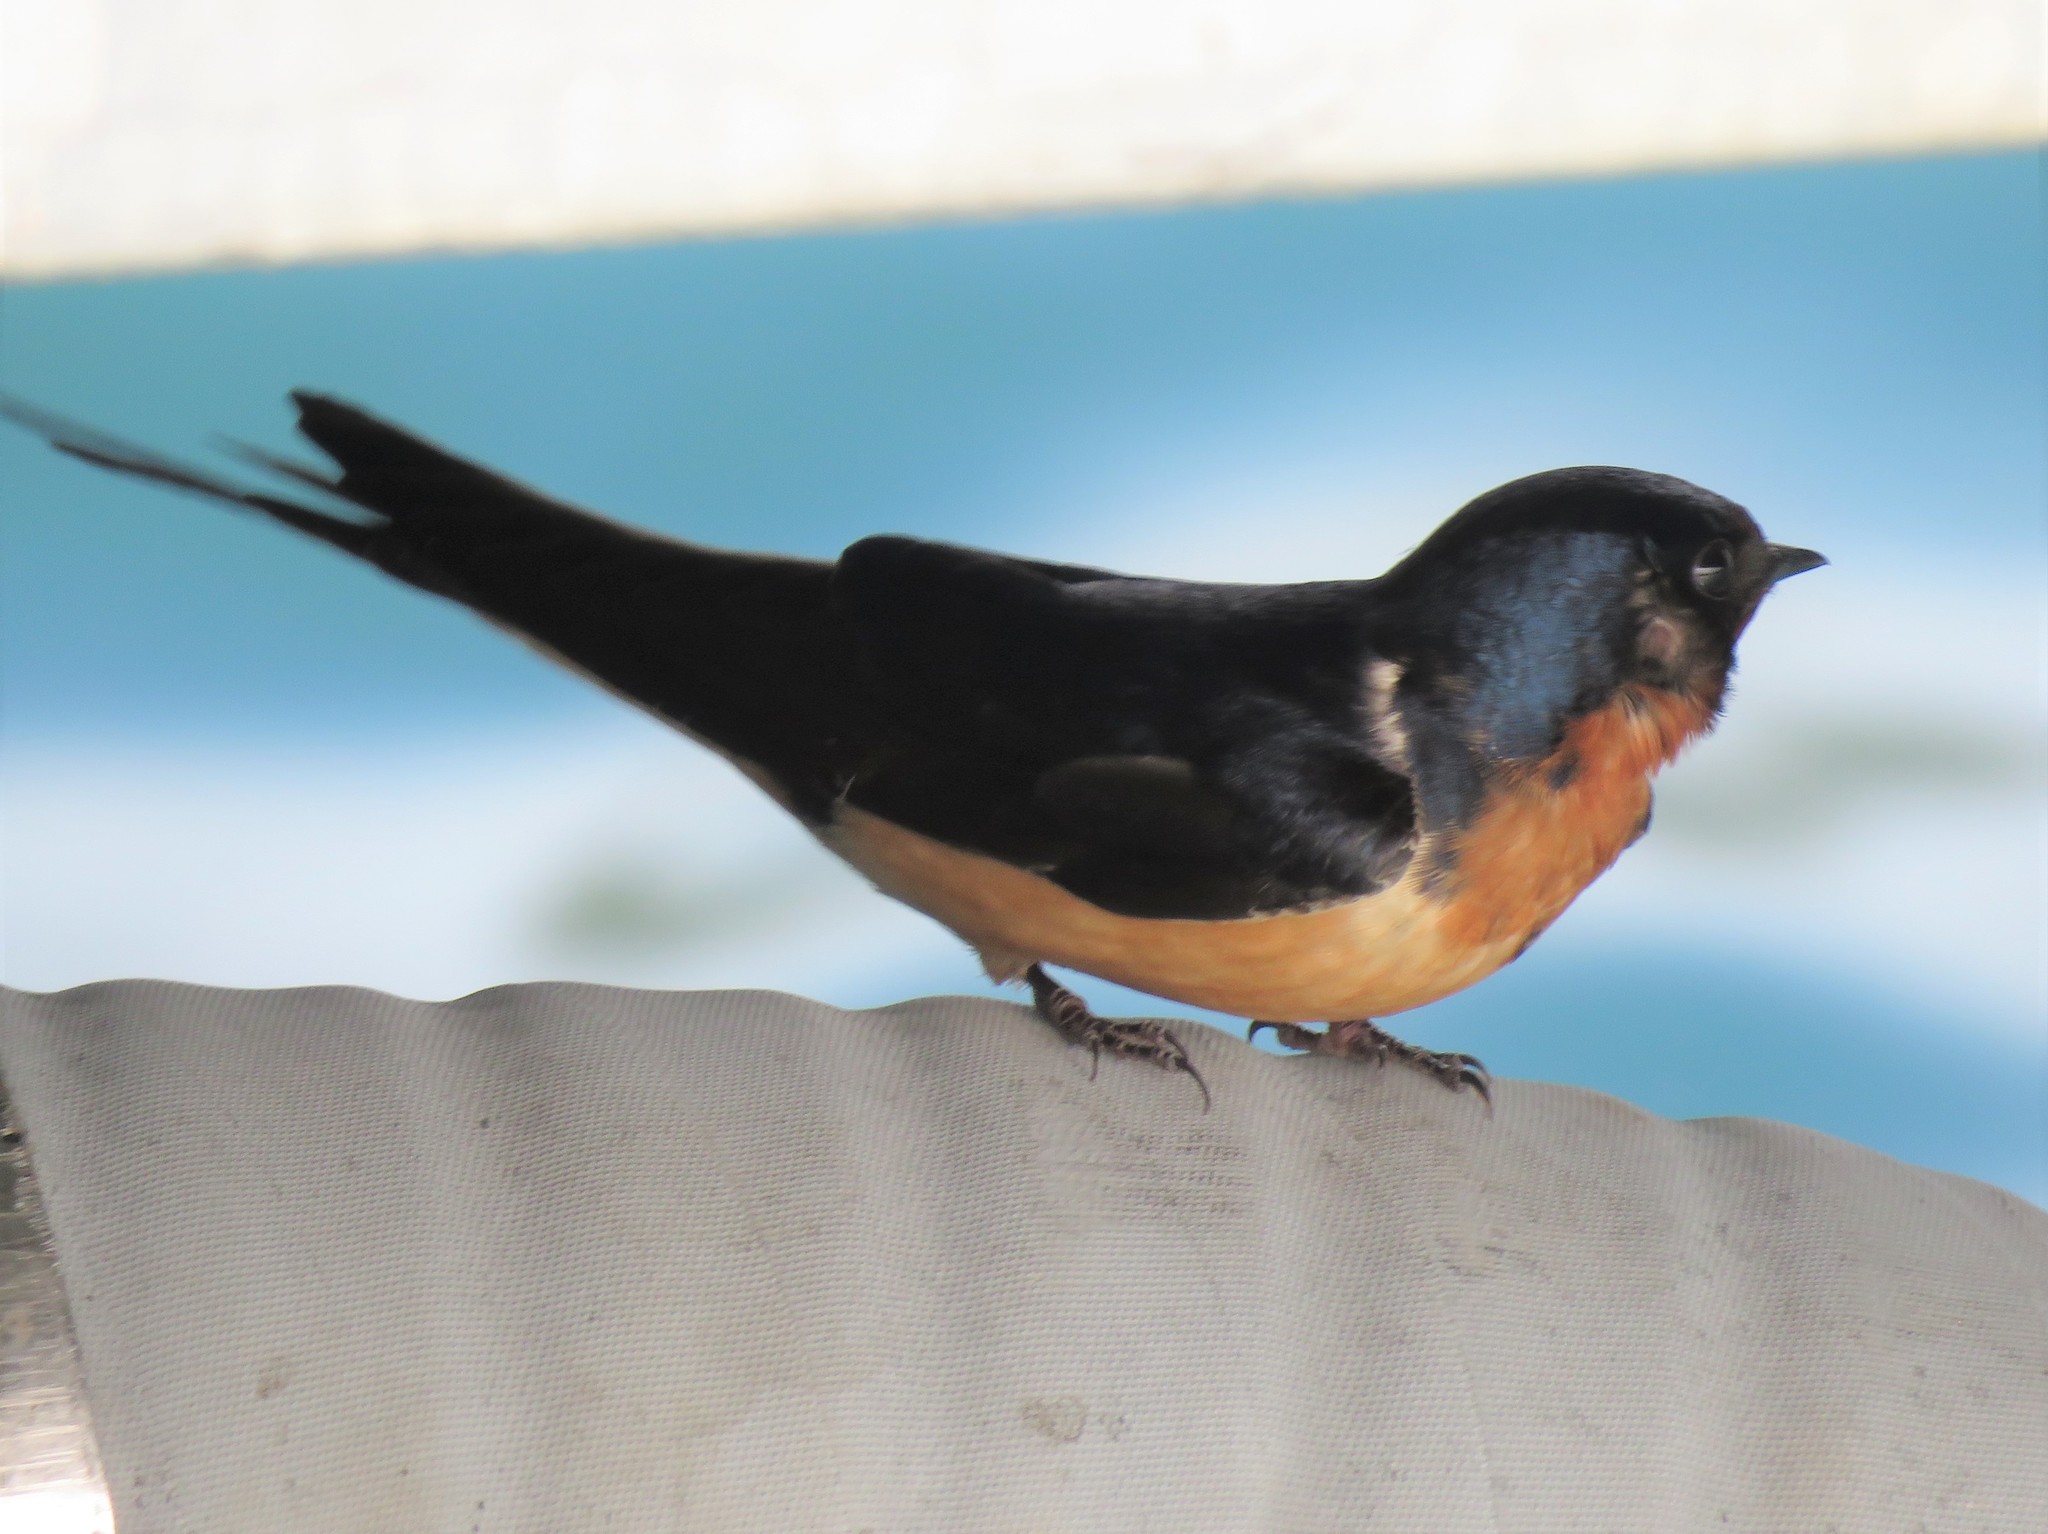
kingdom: Animalia
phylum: Chordata
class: Aves
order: Passeriformes
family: Hirundinidae
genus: Hirundo
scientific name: Hirundo rustica
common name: Barn swallow
